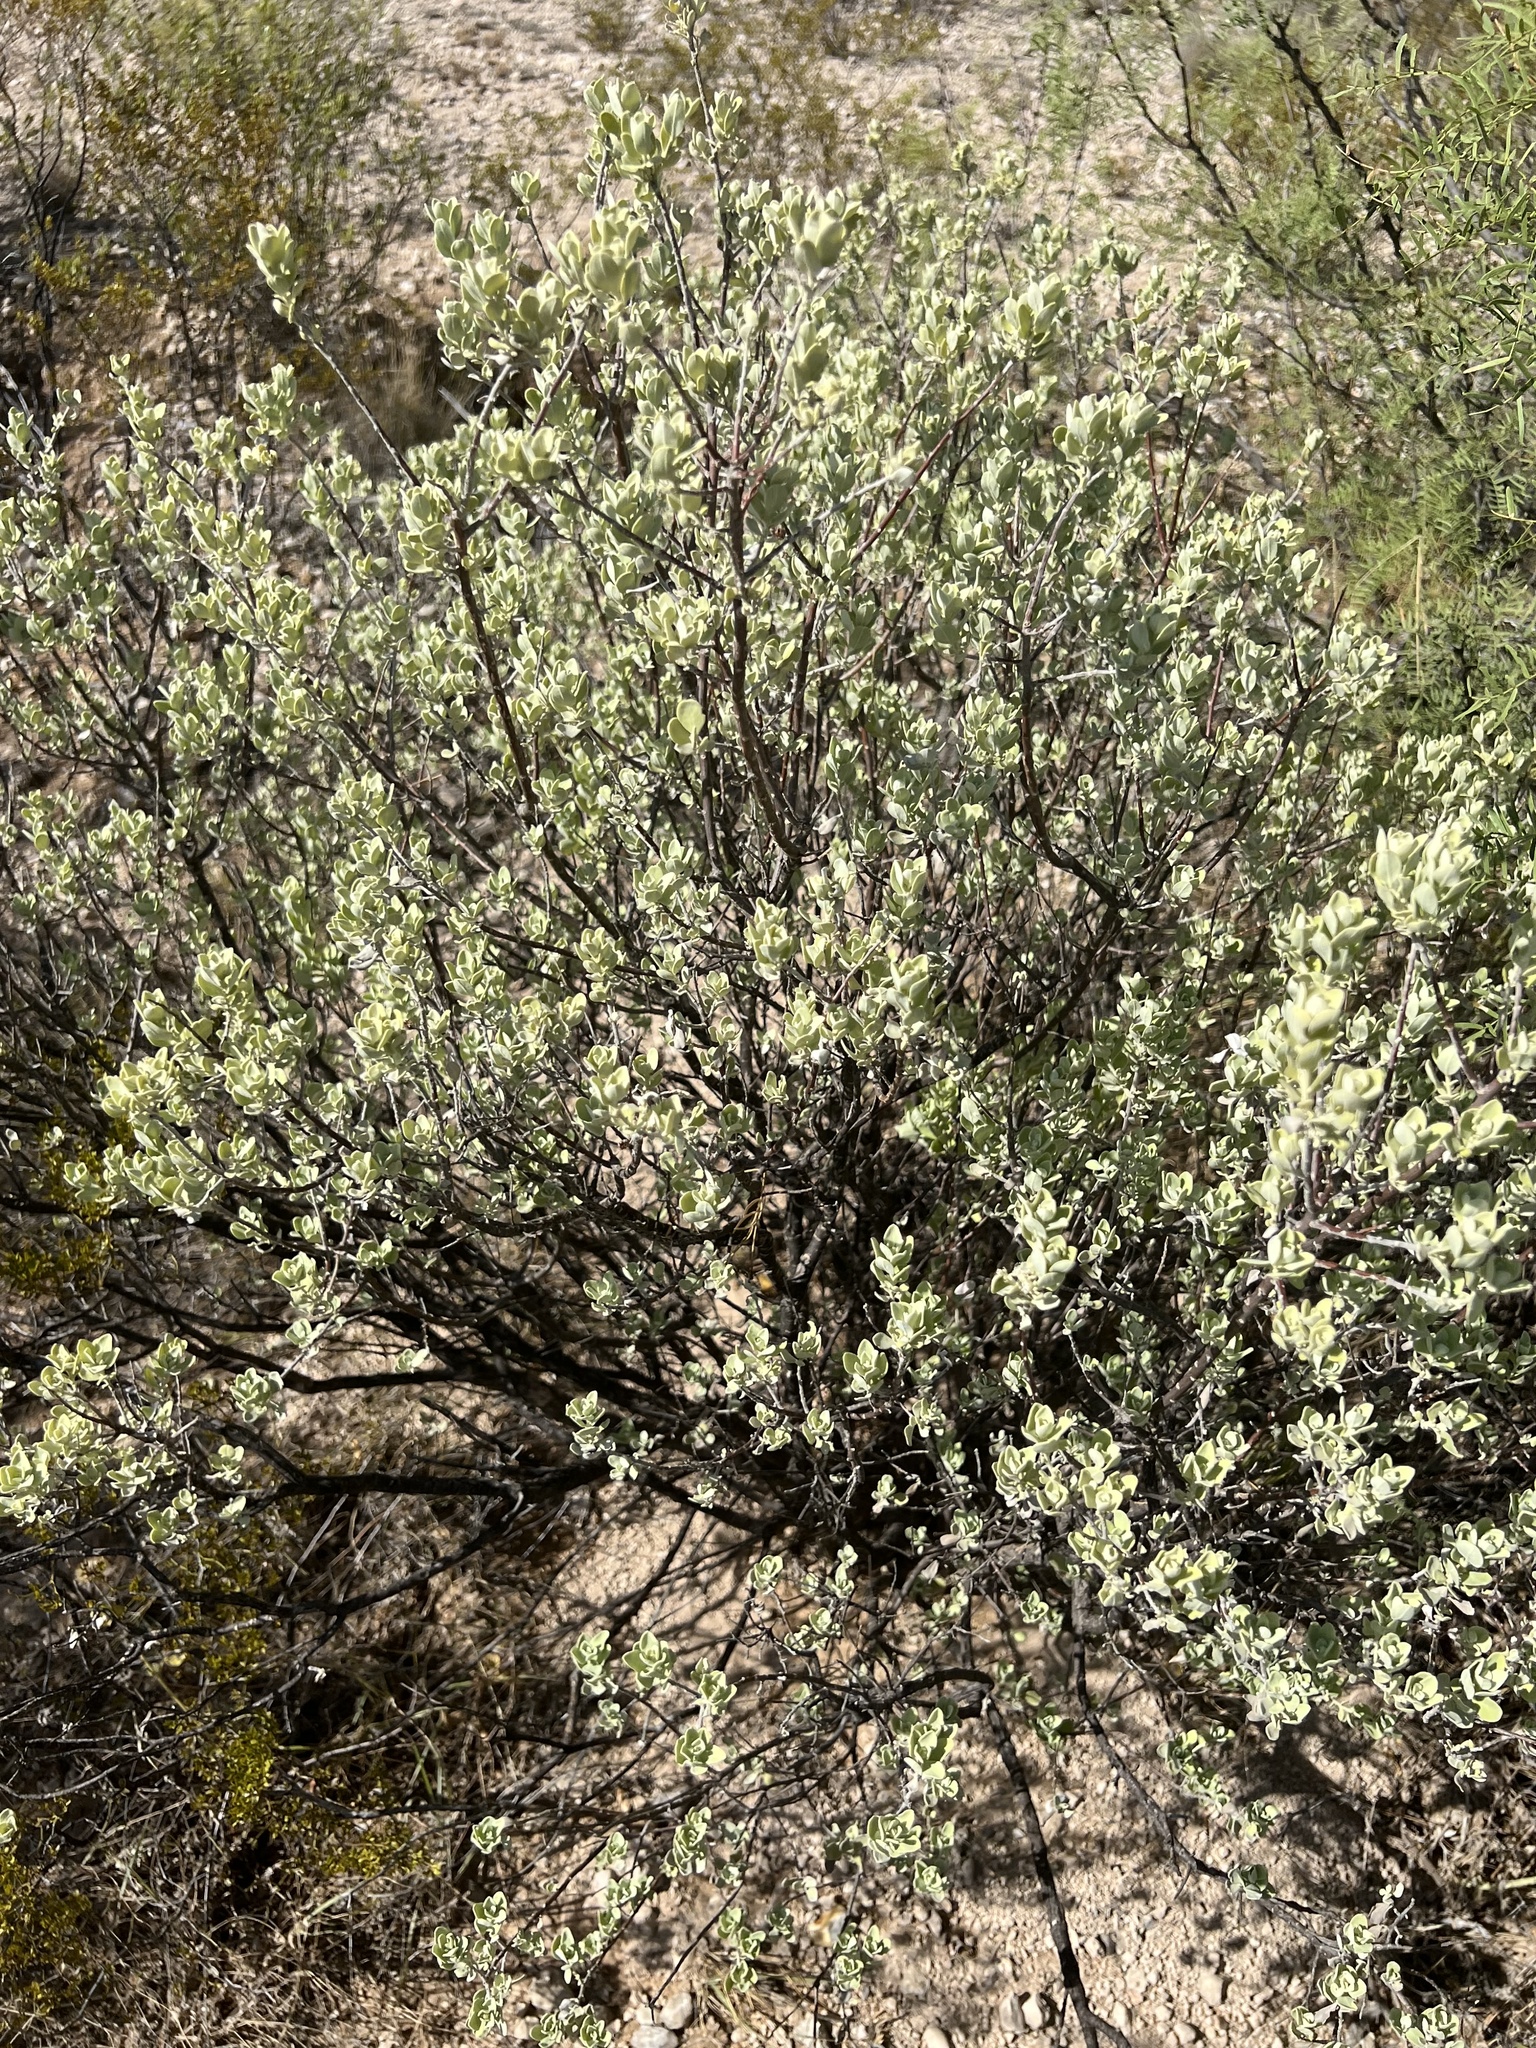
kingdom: Plantae
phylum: Tracheophyta
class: Magnoliopsida
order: Lamiales
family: Scrophulariaceae
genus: Leucophyllum
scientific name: Leucophyllum frutescens
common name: Texas silverleaf
